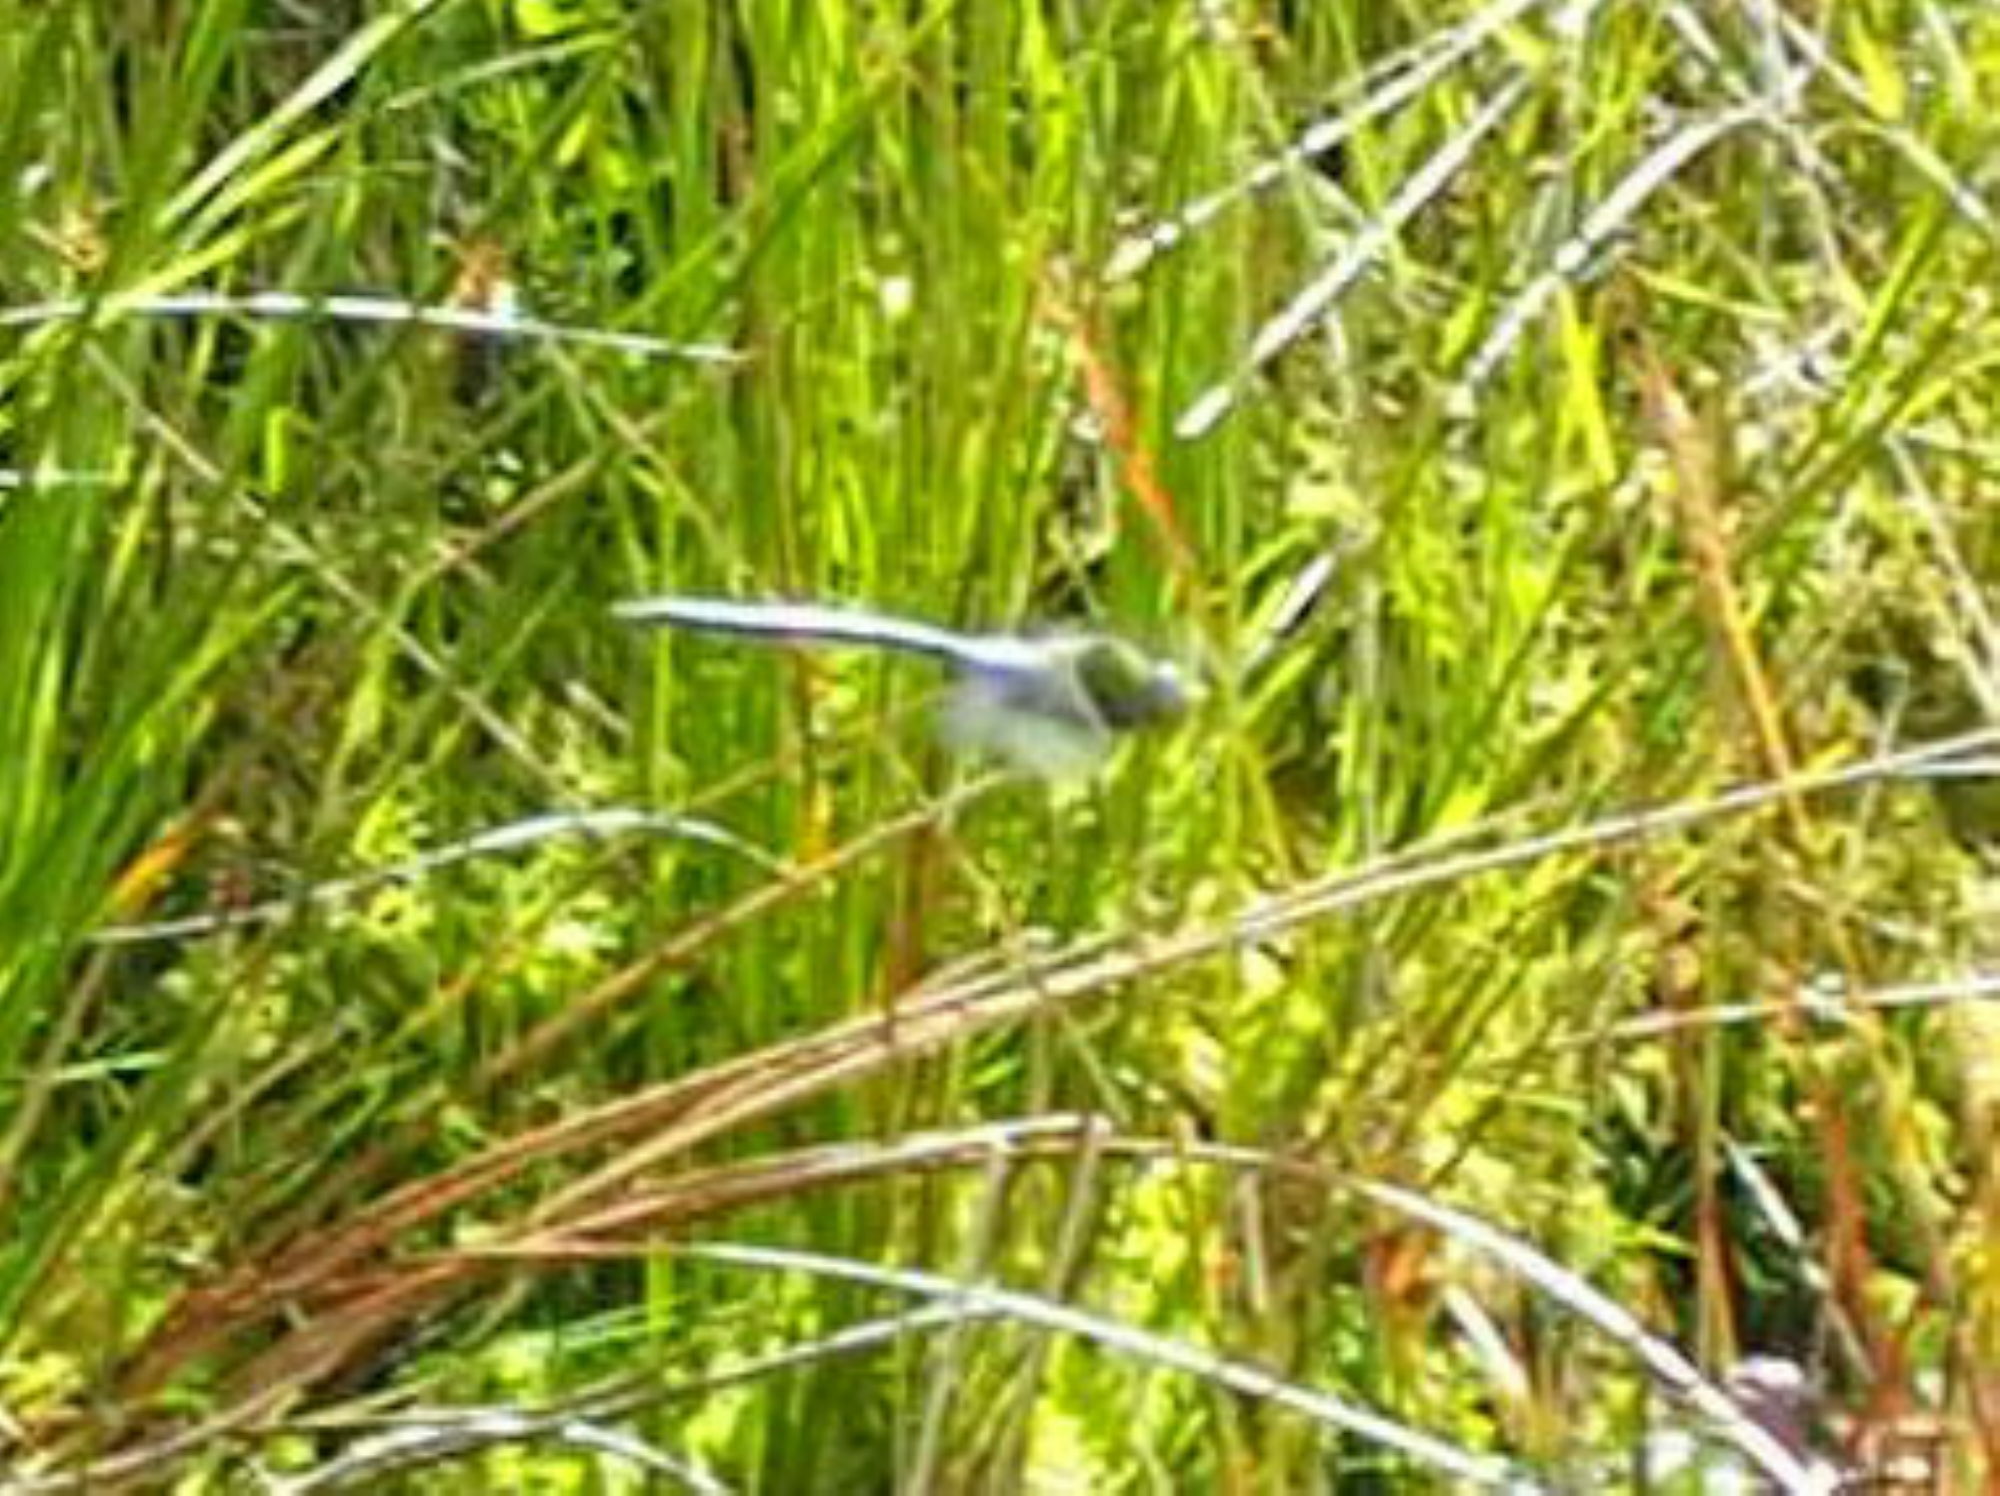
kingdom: Animalia
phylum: Arthropoda
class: Insecta
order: Odonata
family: Aeshnidae
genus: Anax
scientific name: Anax imperator
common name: Emperor dragonfly
